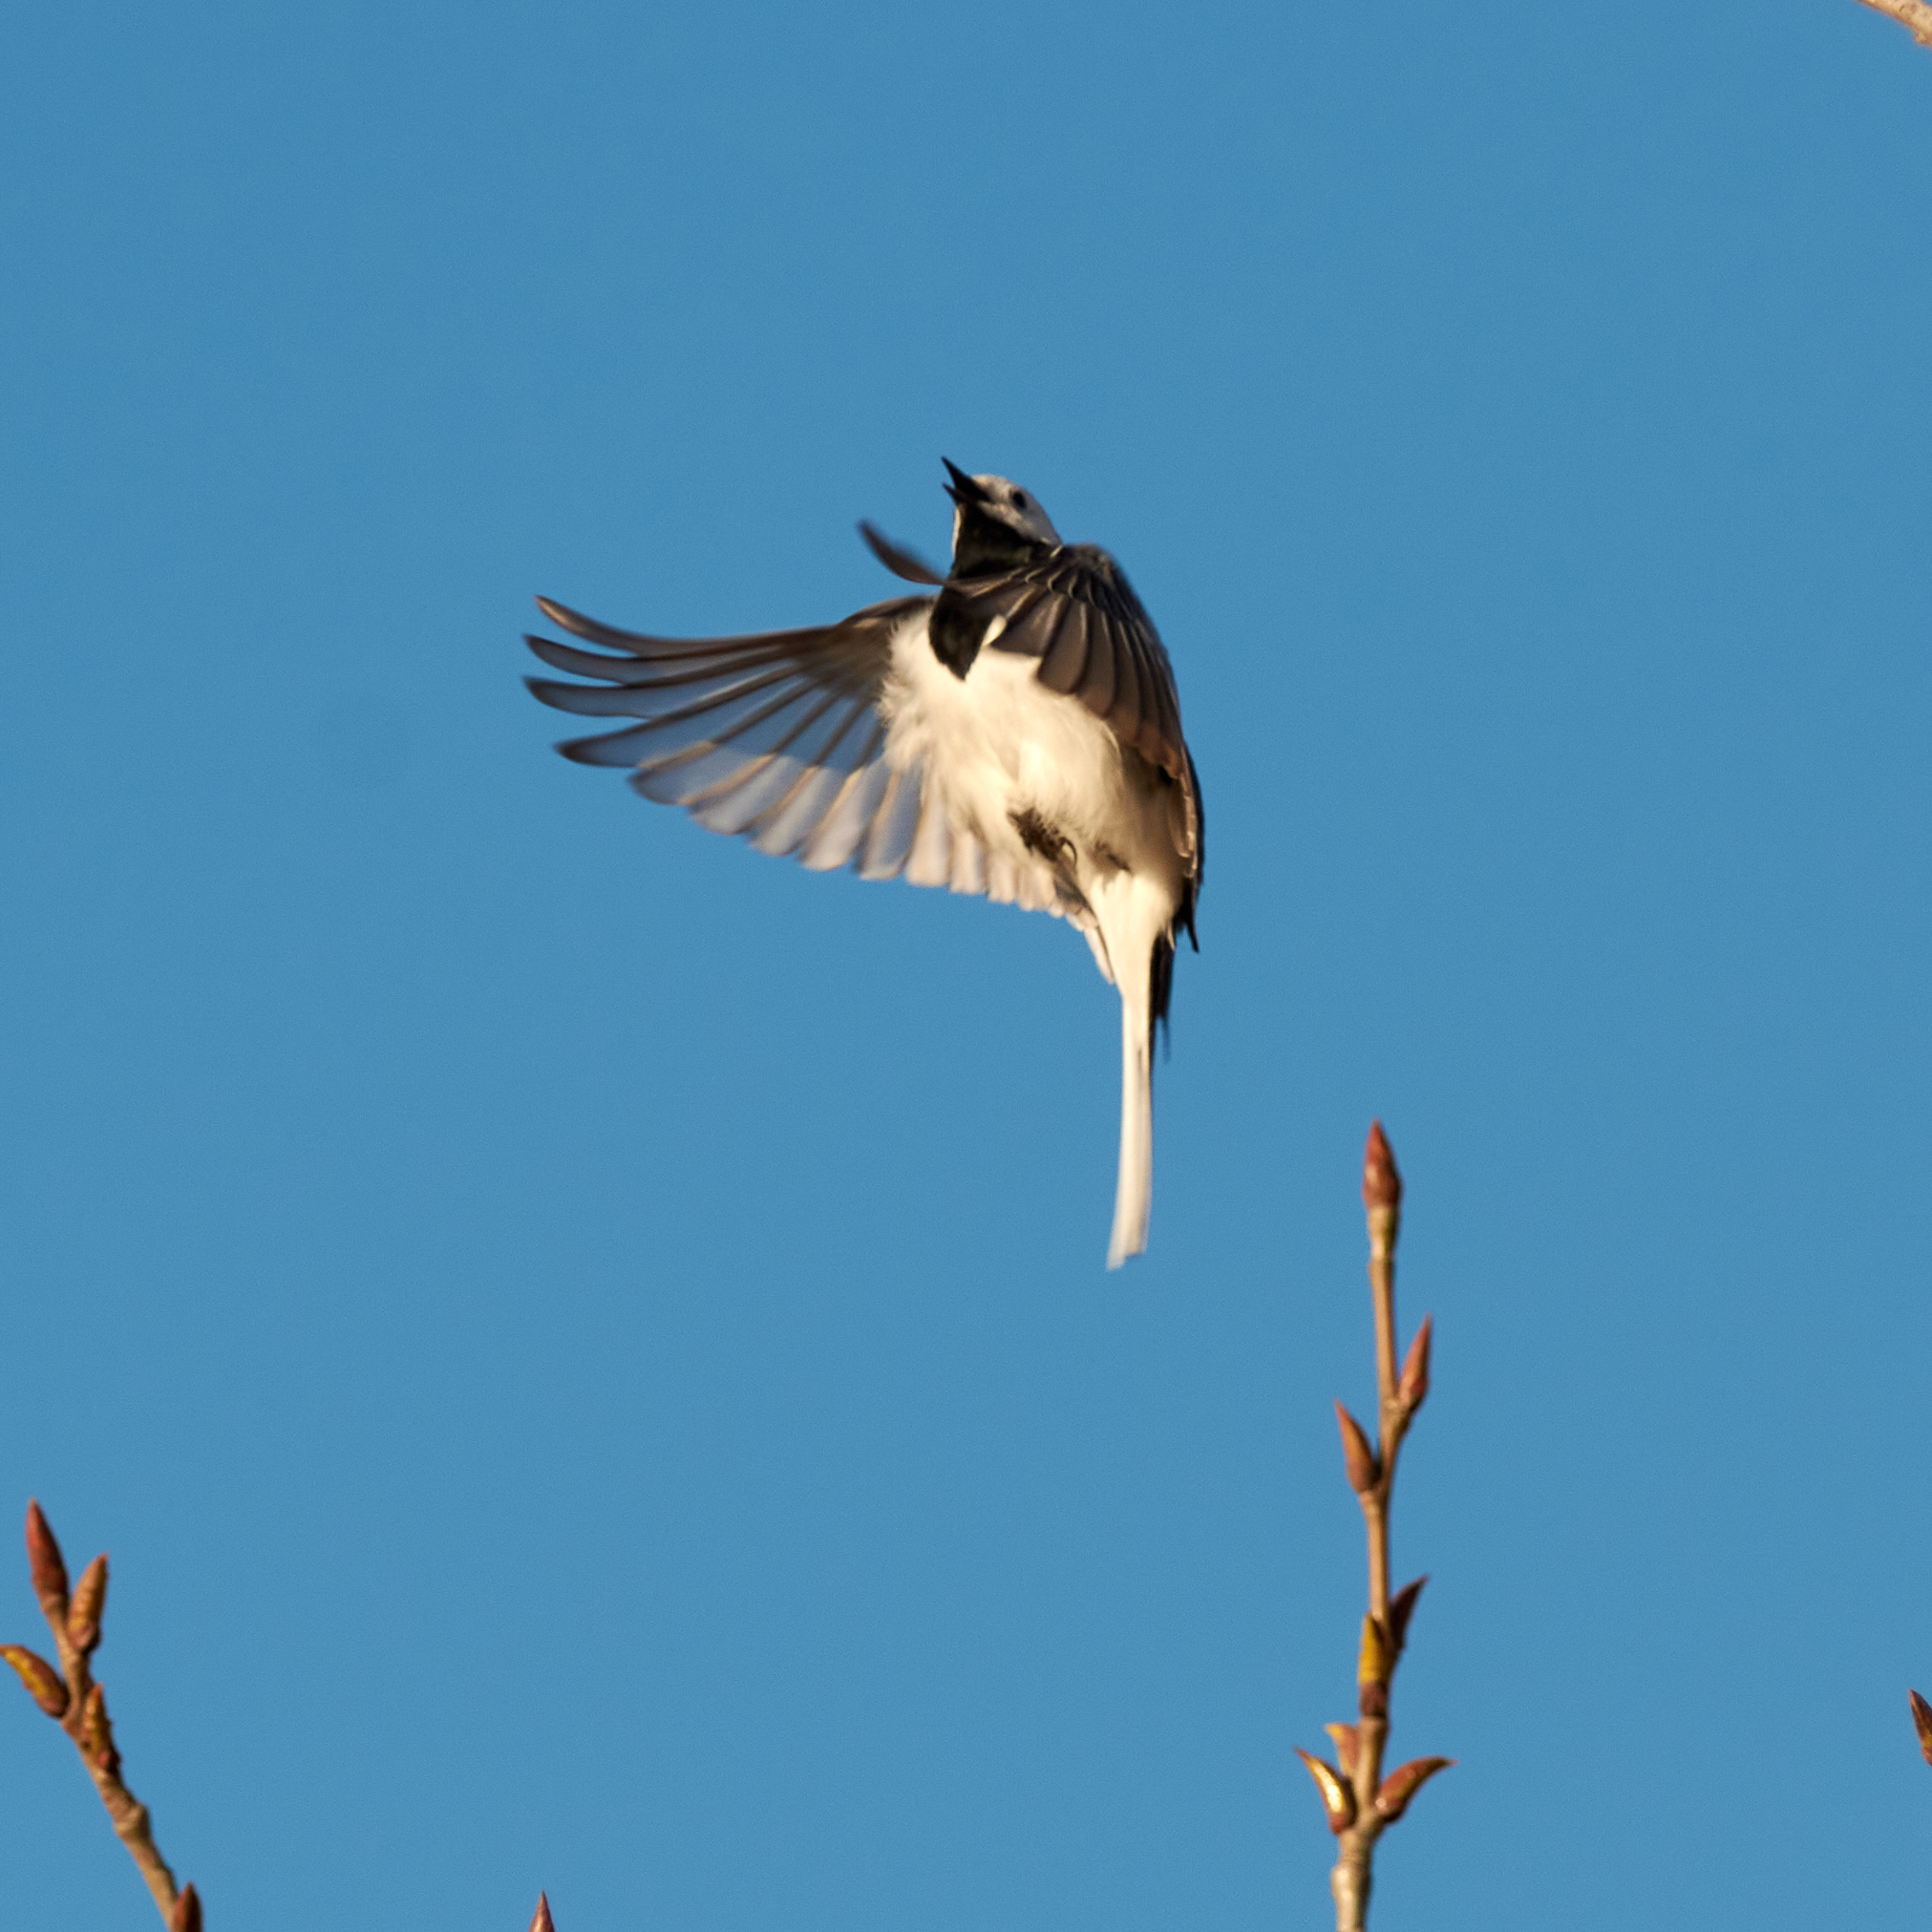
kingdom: Animalia
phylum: Chordata
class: Aves
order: Passeriformes
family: Motacillidae
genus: Motacilla
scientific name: Motacilla alba
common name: White wagtail
